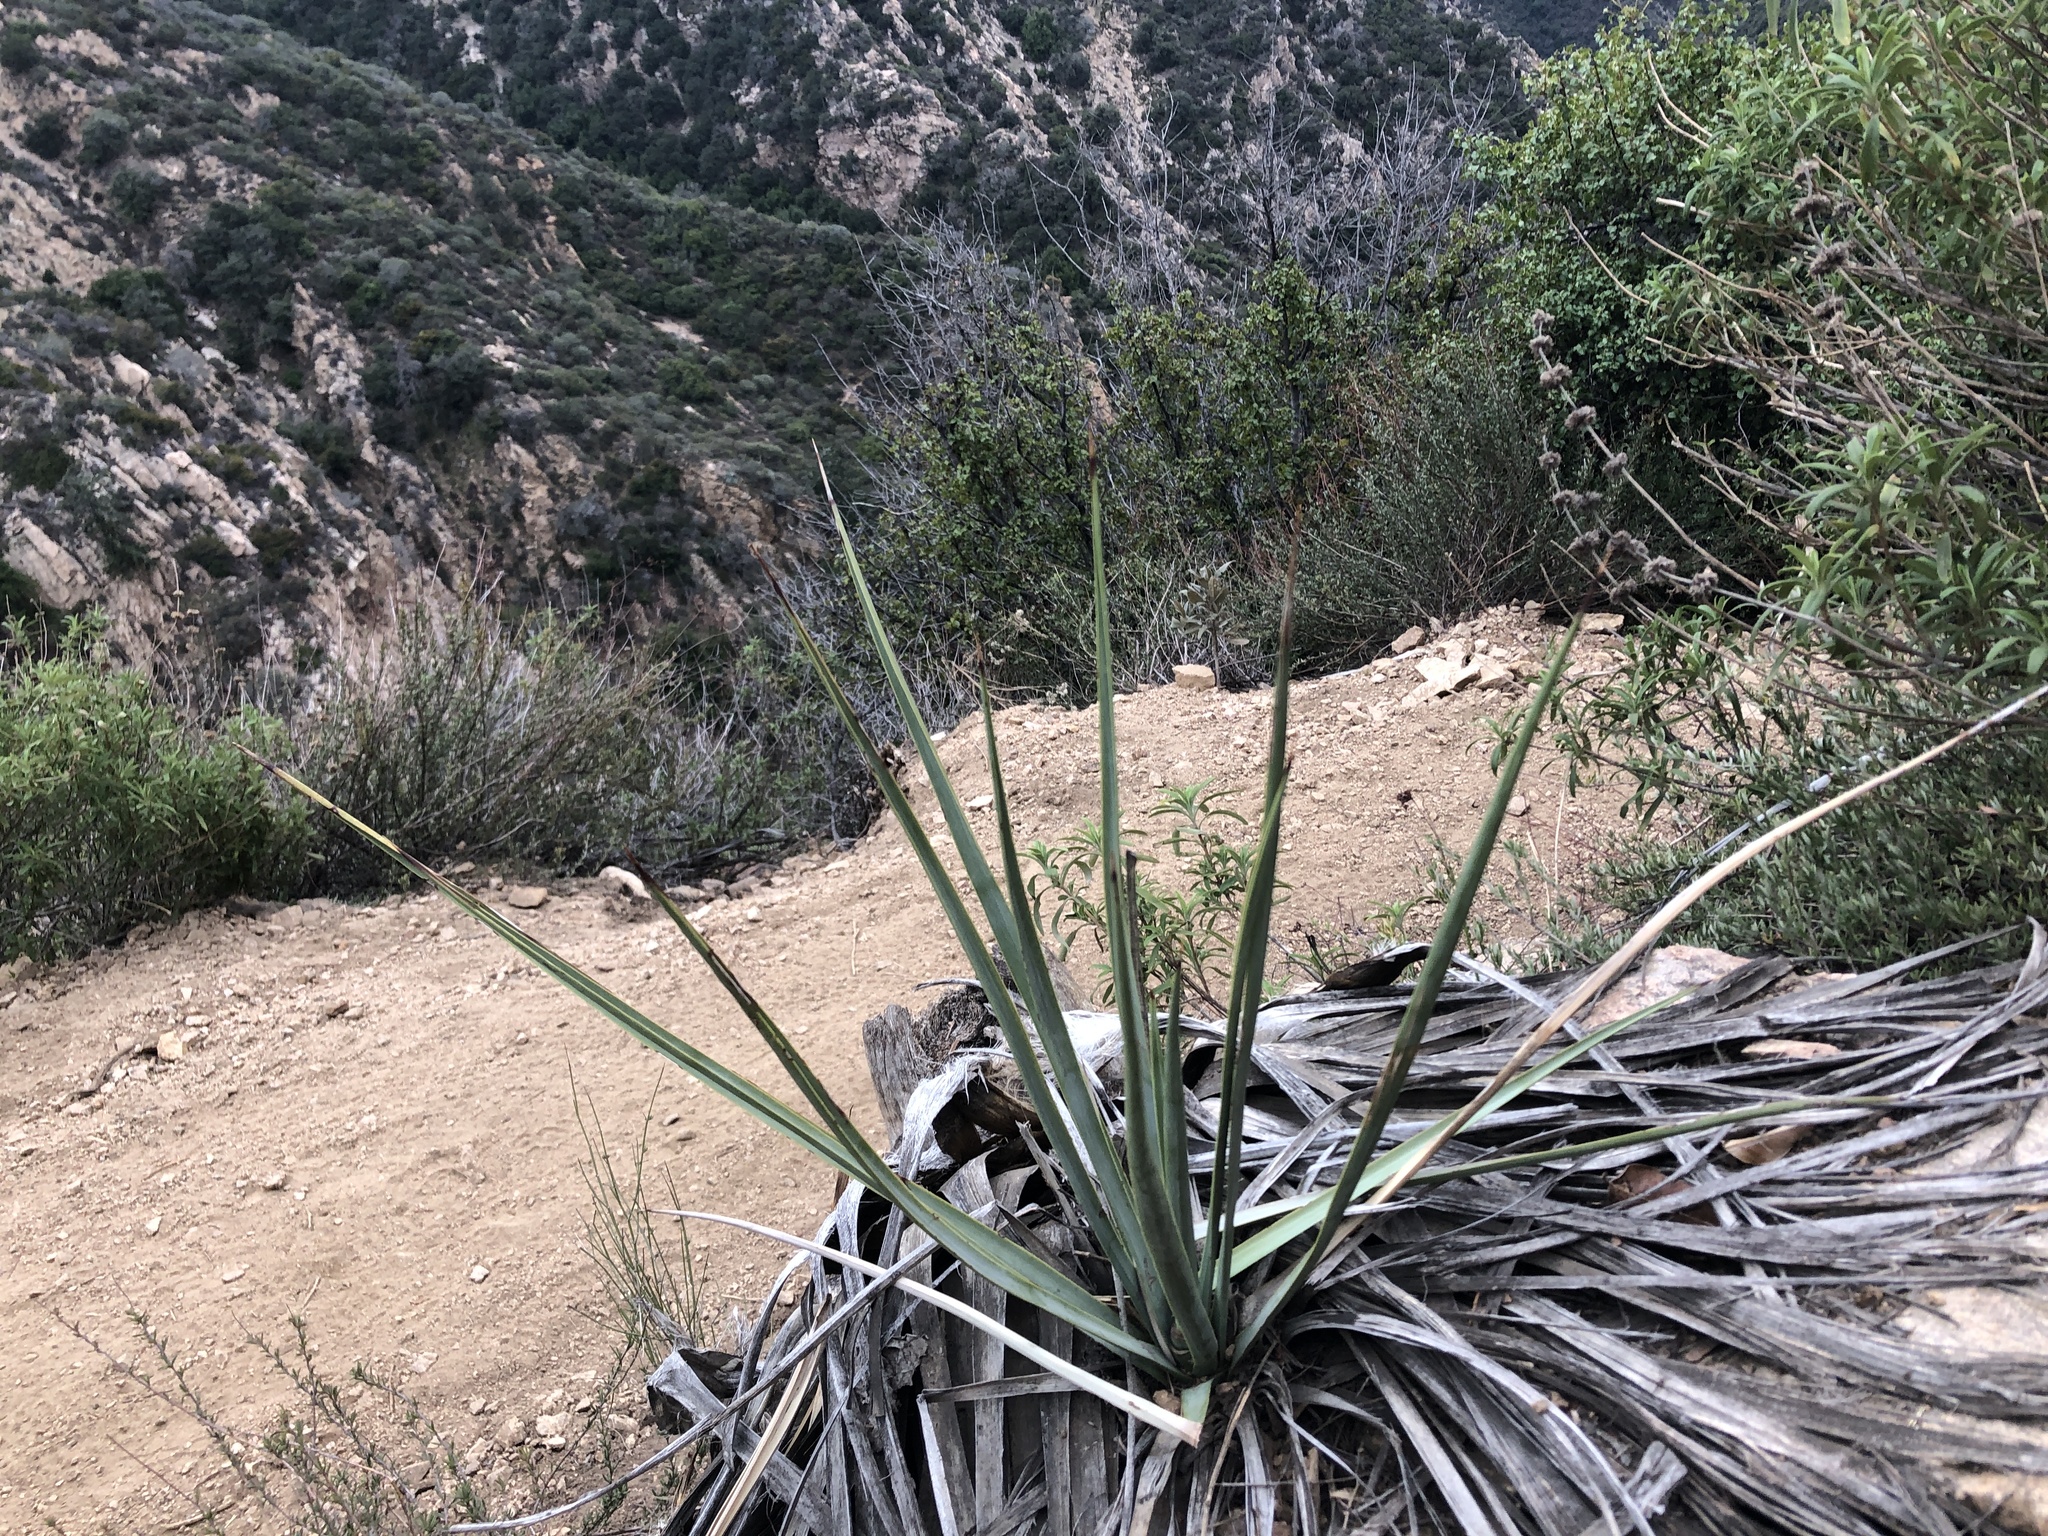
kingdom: Plantae
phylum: Tracheophyta
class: Liliopsida
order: Asparagales
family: Asparagaceae
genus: Hesperoyucca
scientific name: Hesperoyucca whipplei
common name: Our lord's-candle
